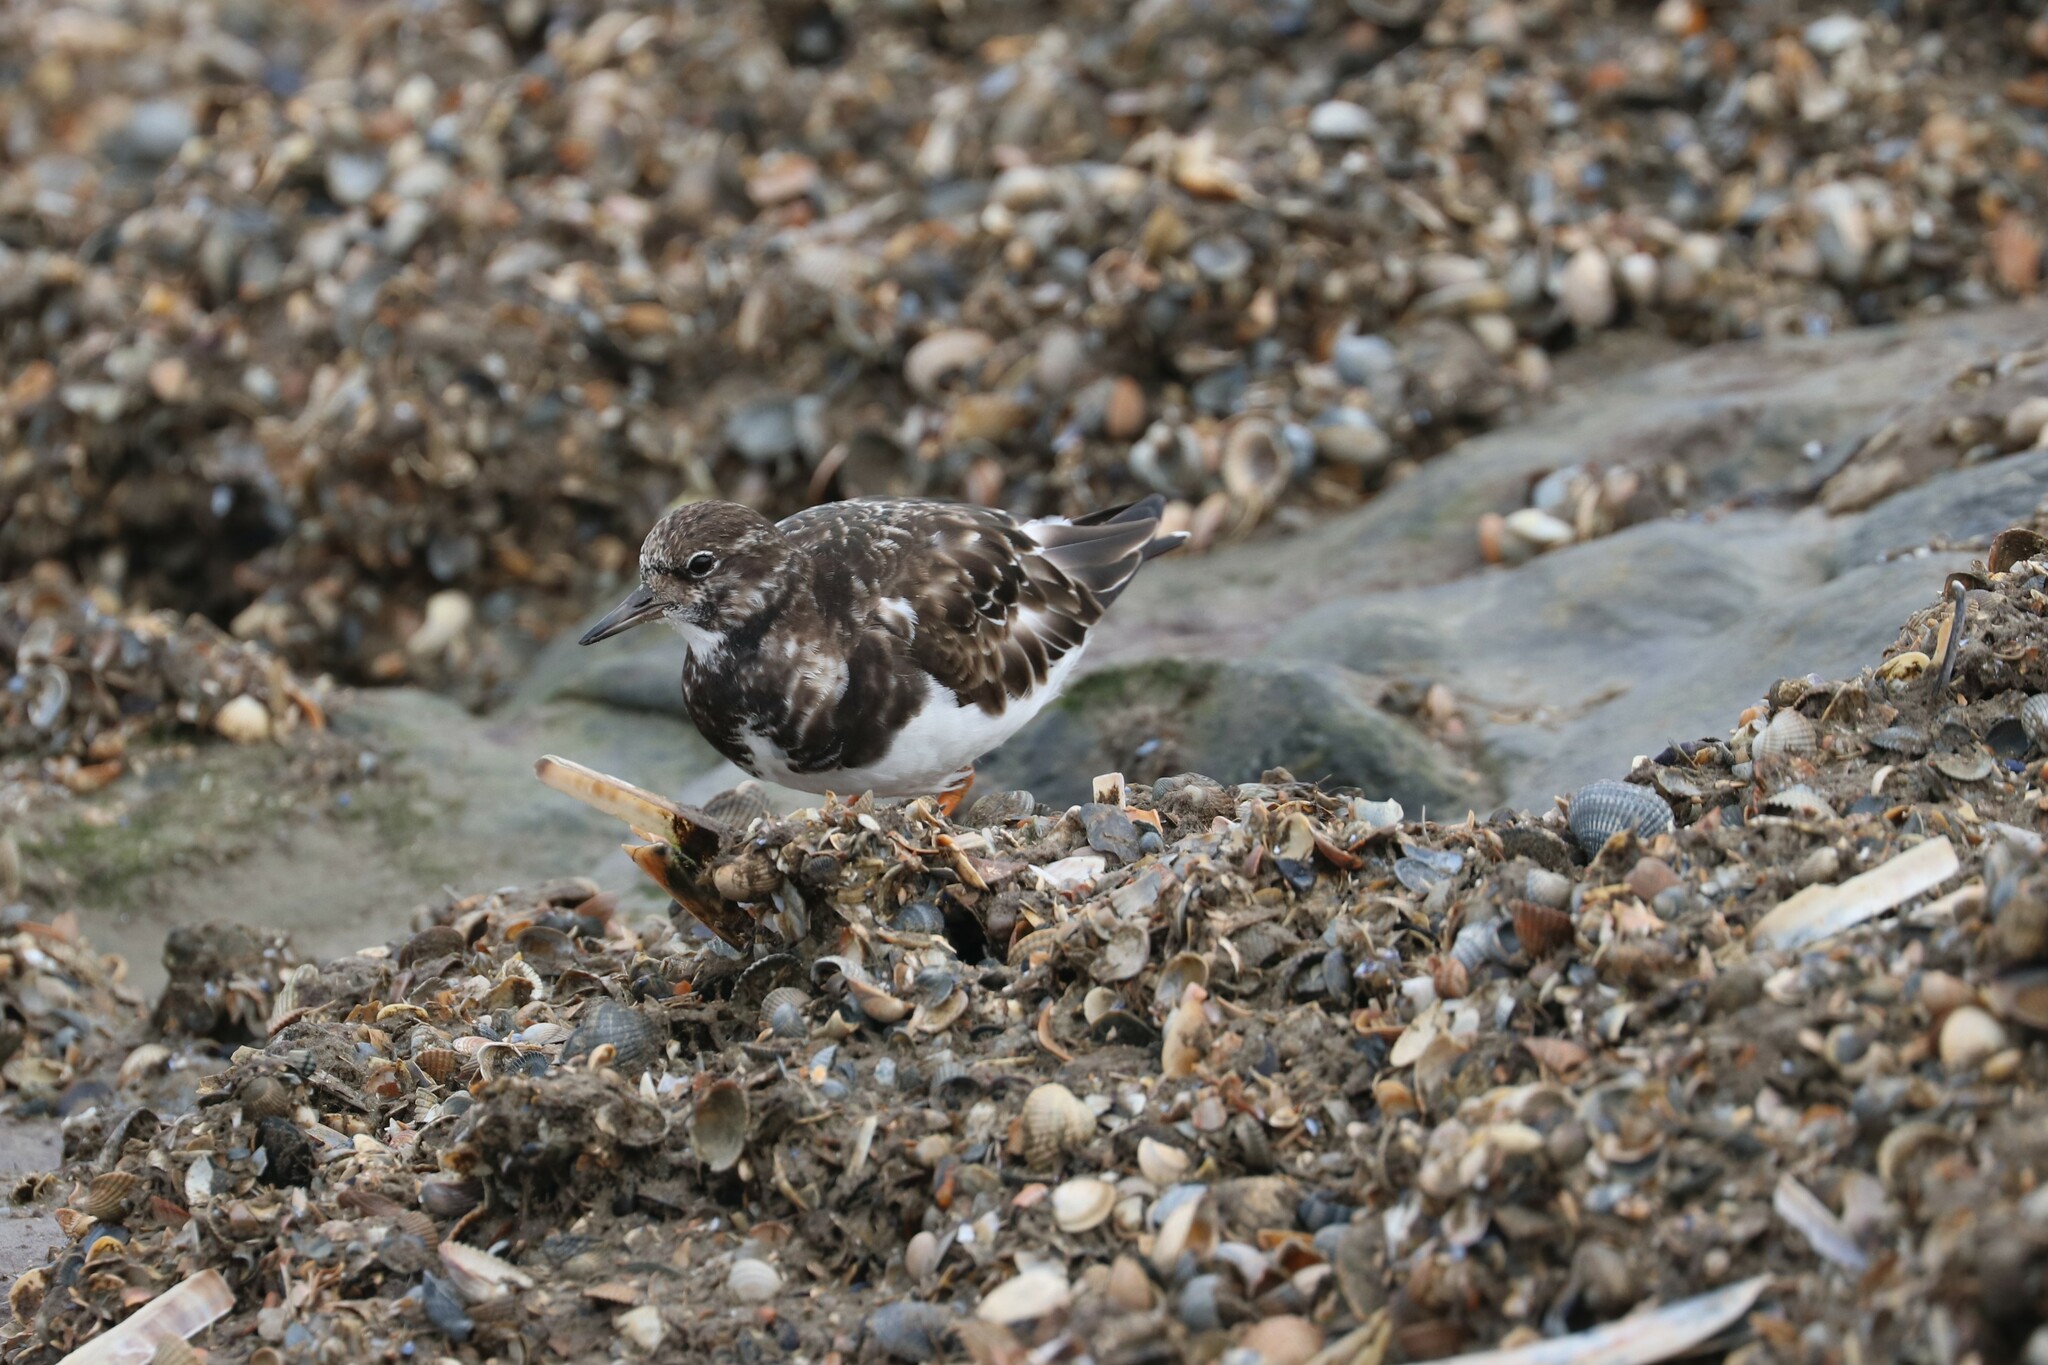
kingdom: Animalia
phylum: Chordata
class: Aves
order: Charadriiformes
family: Scolopacidae
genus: Arenaria
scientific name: Arenaria interpres
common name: Ruddy turnstone
